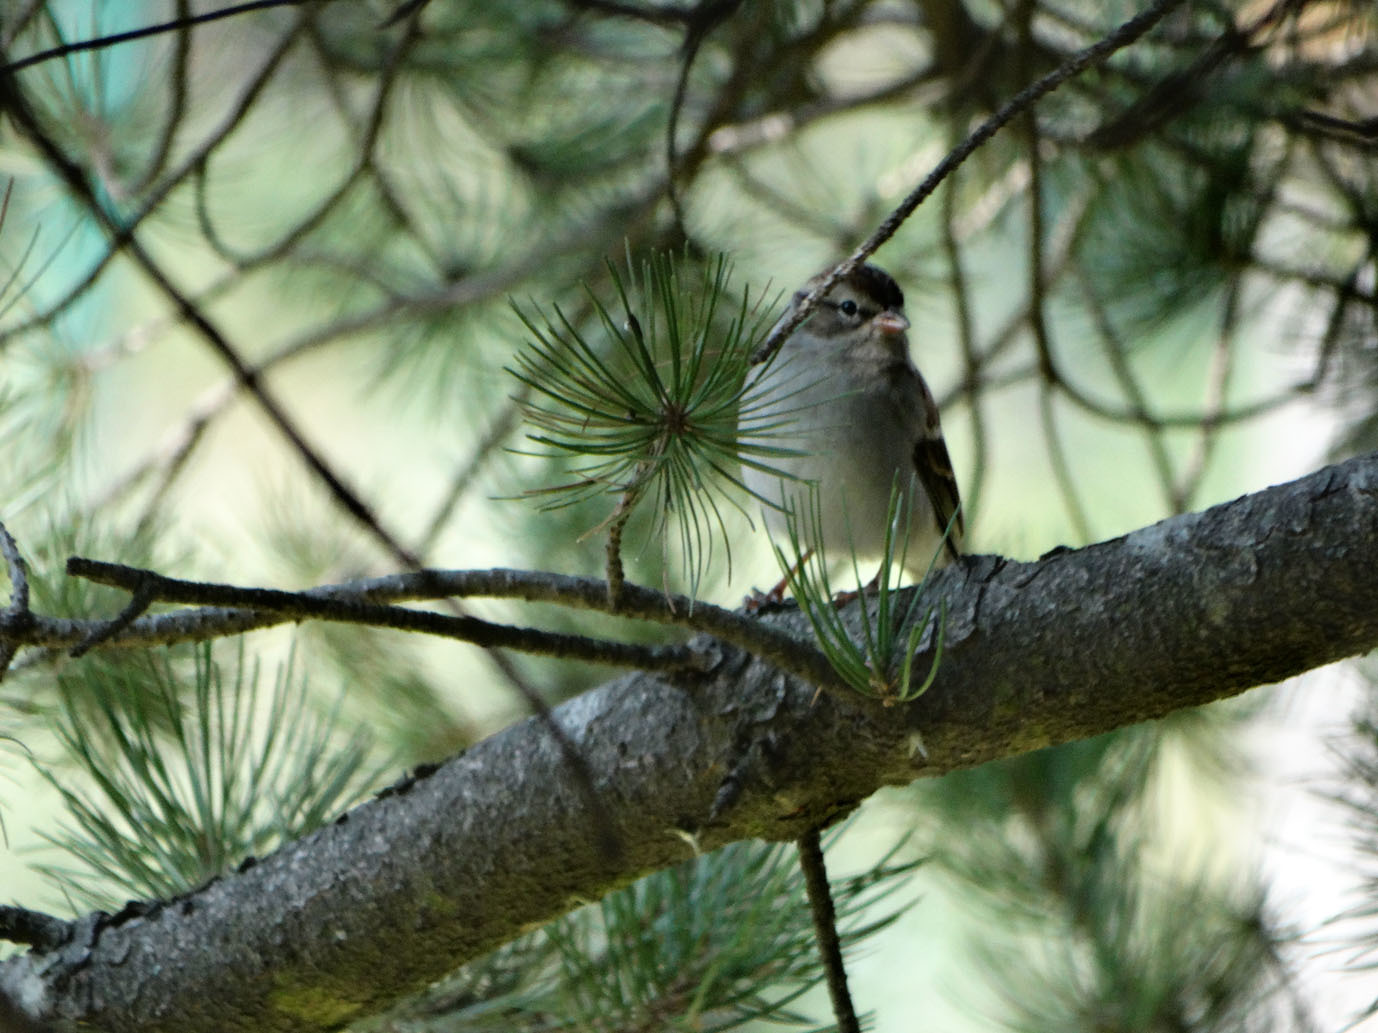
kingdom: Animalia
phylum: Chordata
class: Aves
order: Passeriformes
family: Passerellidae
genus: Spizella
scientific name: Spizella passerina
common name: Chipping sparrow
